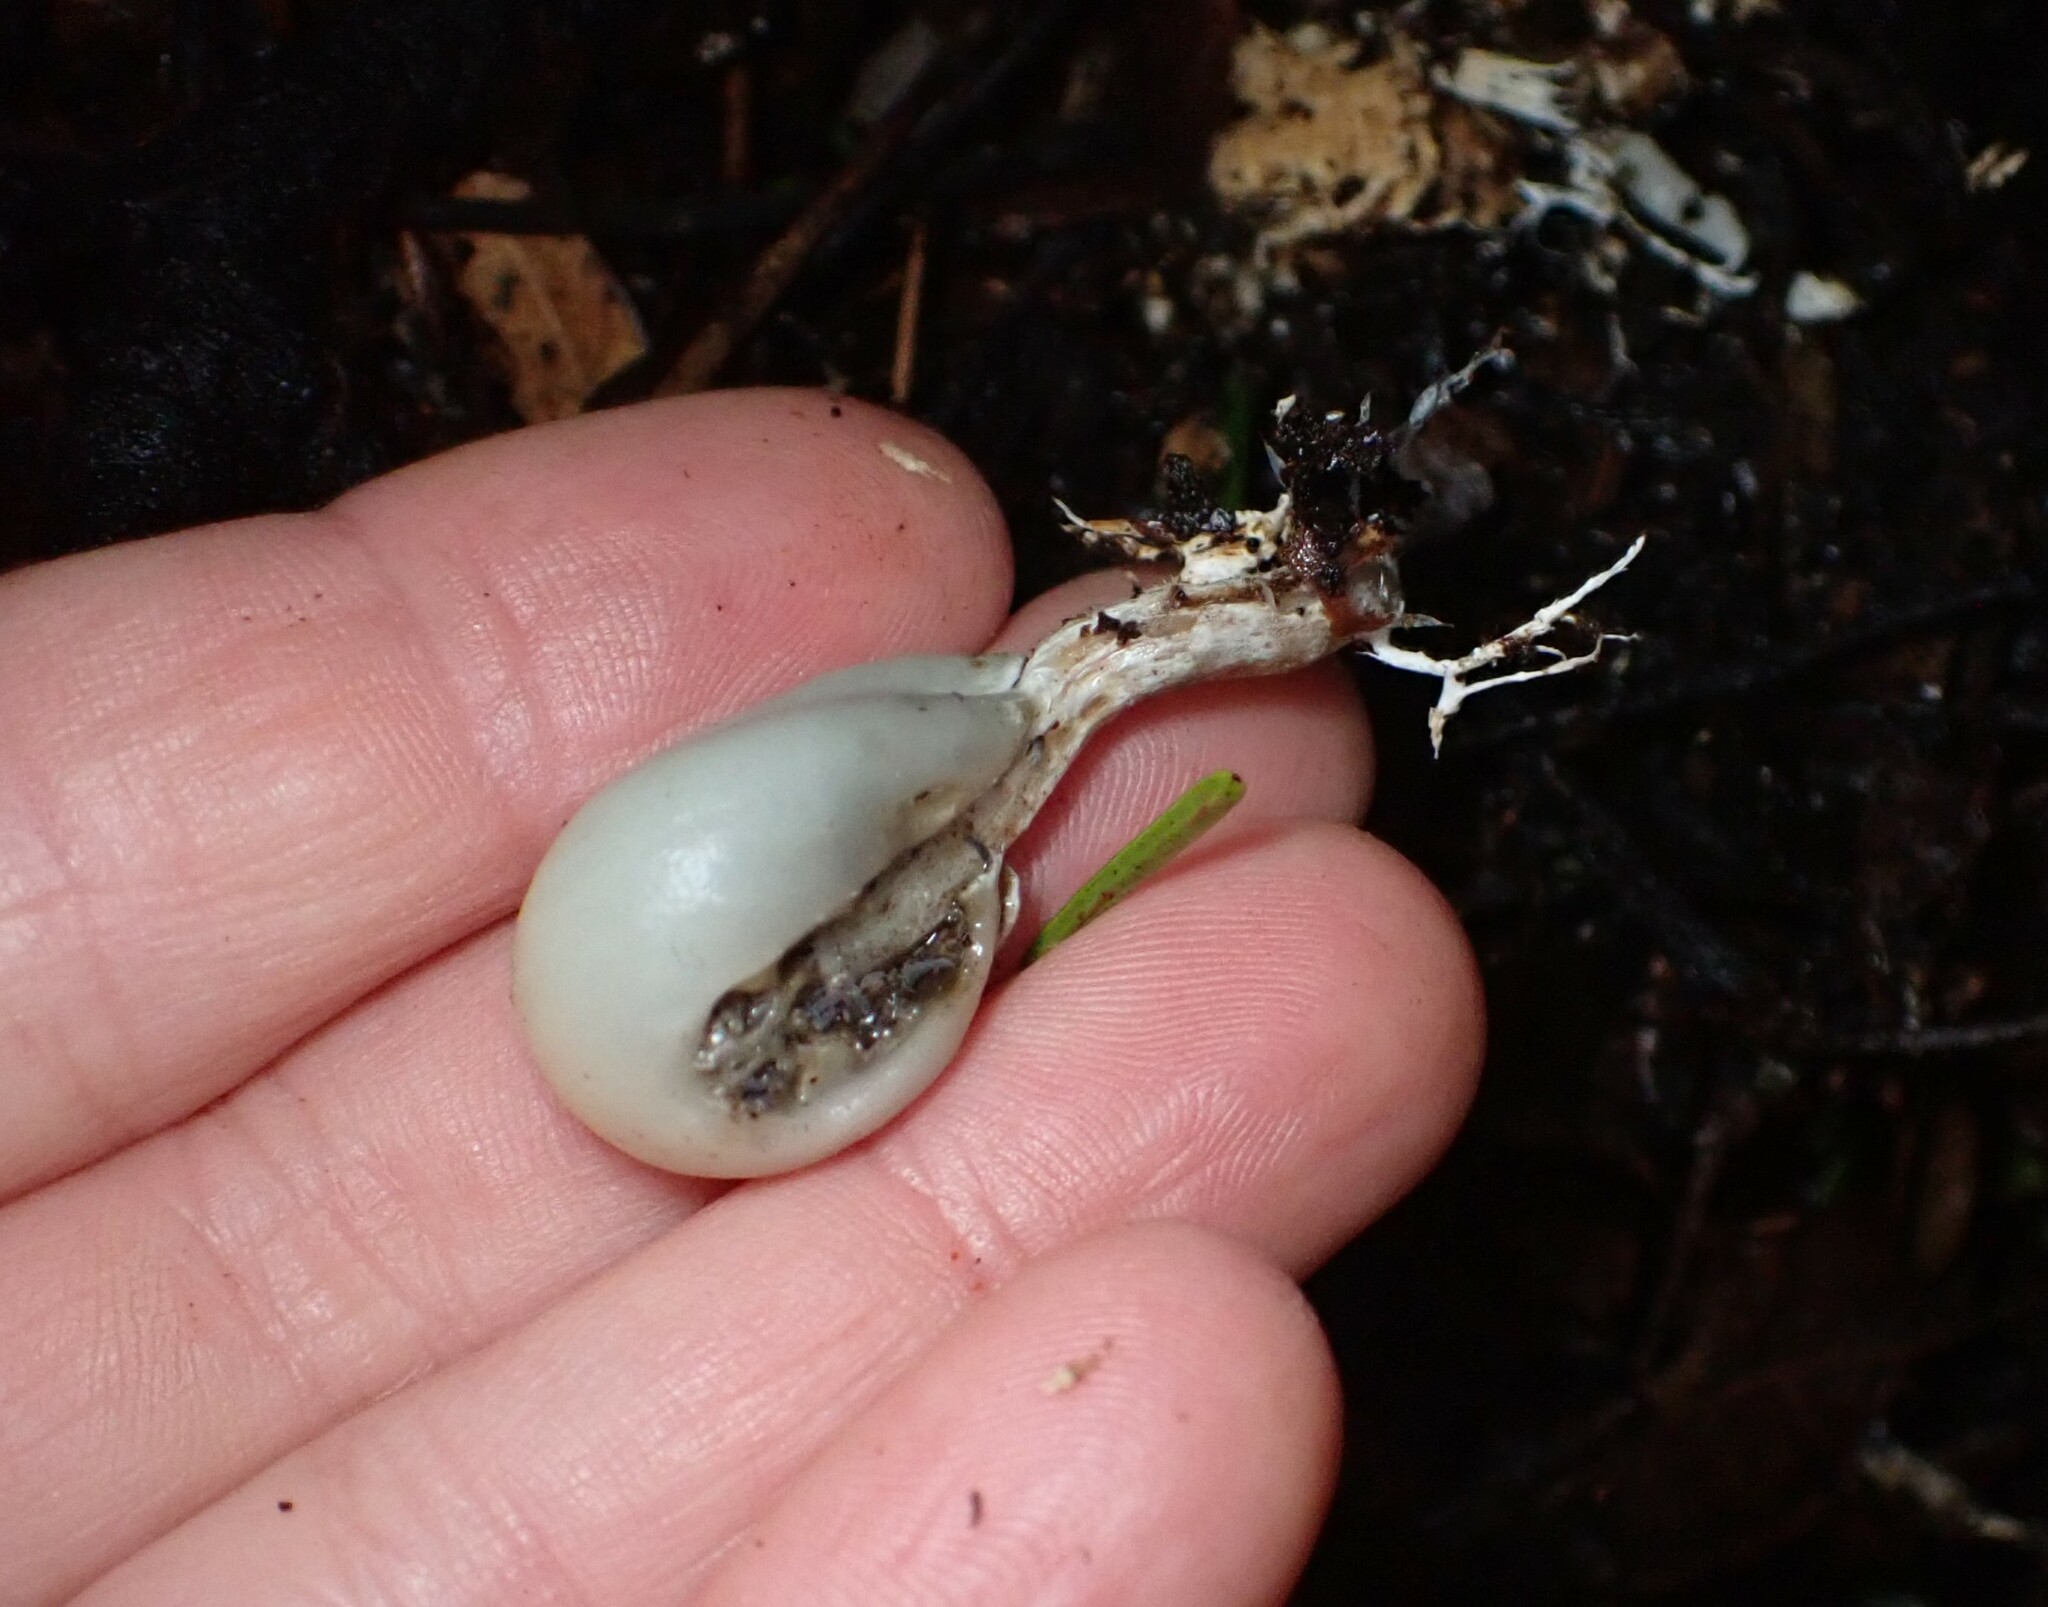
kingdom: Fungi
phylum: Basidiomycota
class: Agaricomycetes
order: Agaricales
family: Hymenogastraceae
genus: Psilocybe
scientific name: Psilocybe weraroa
